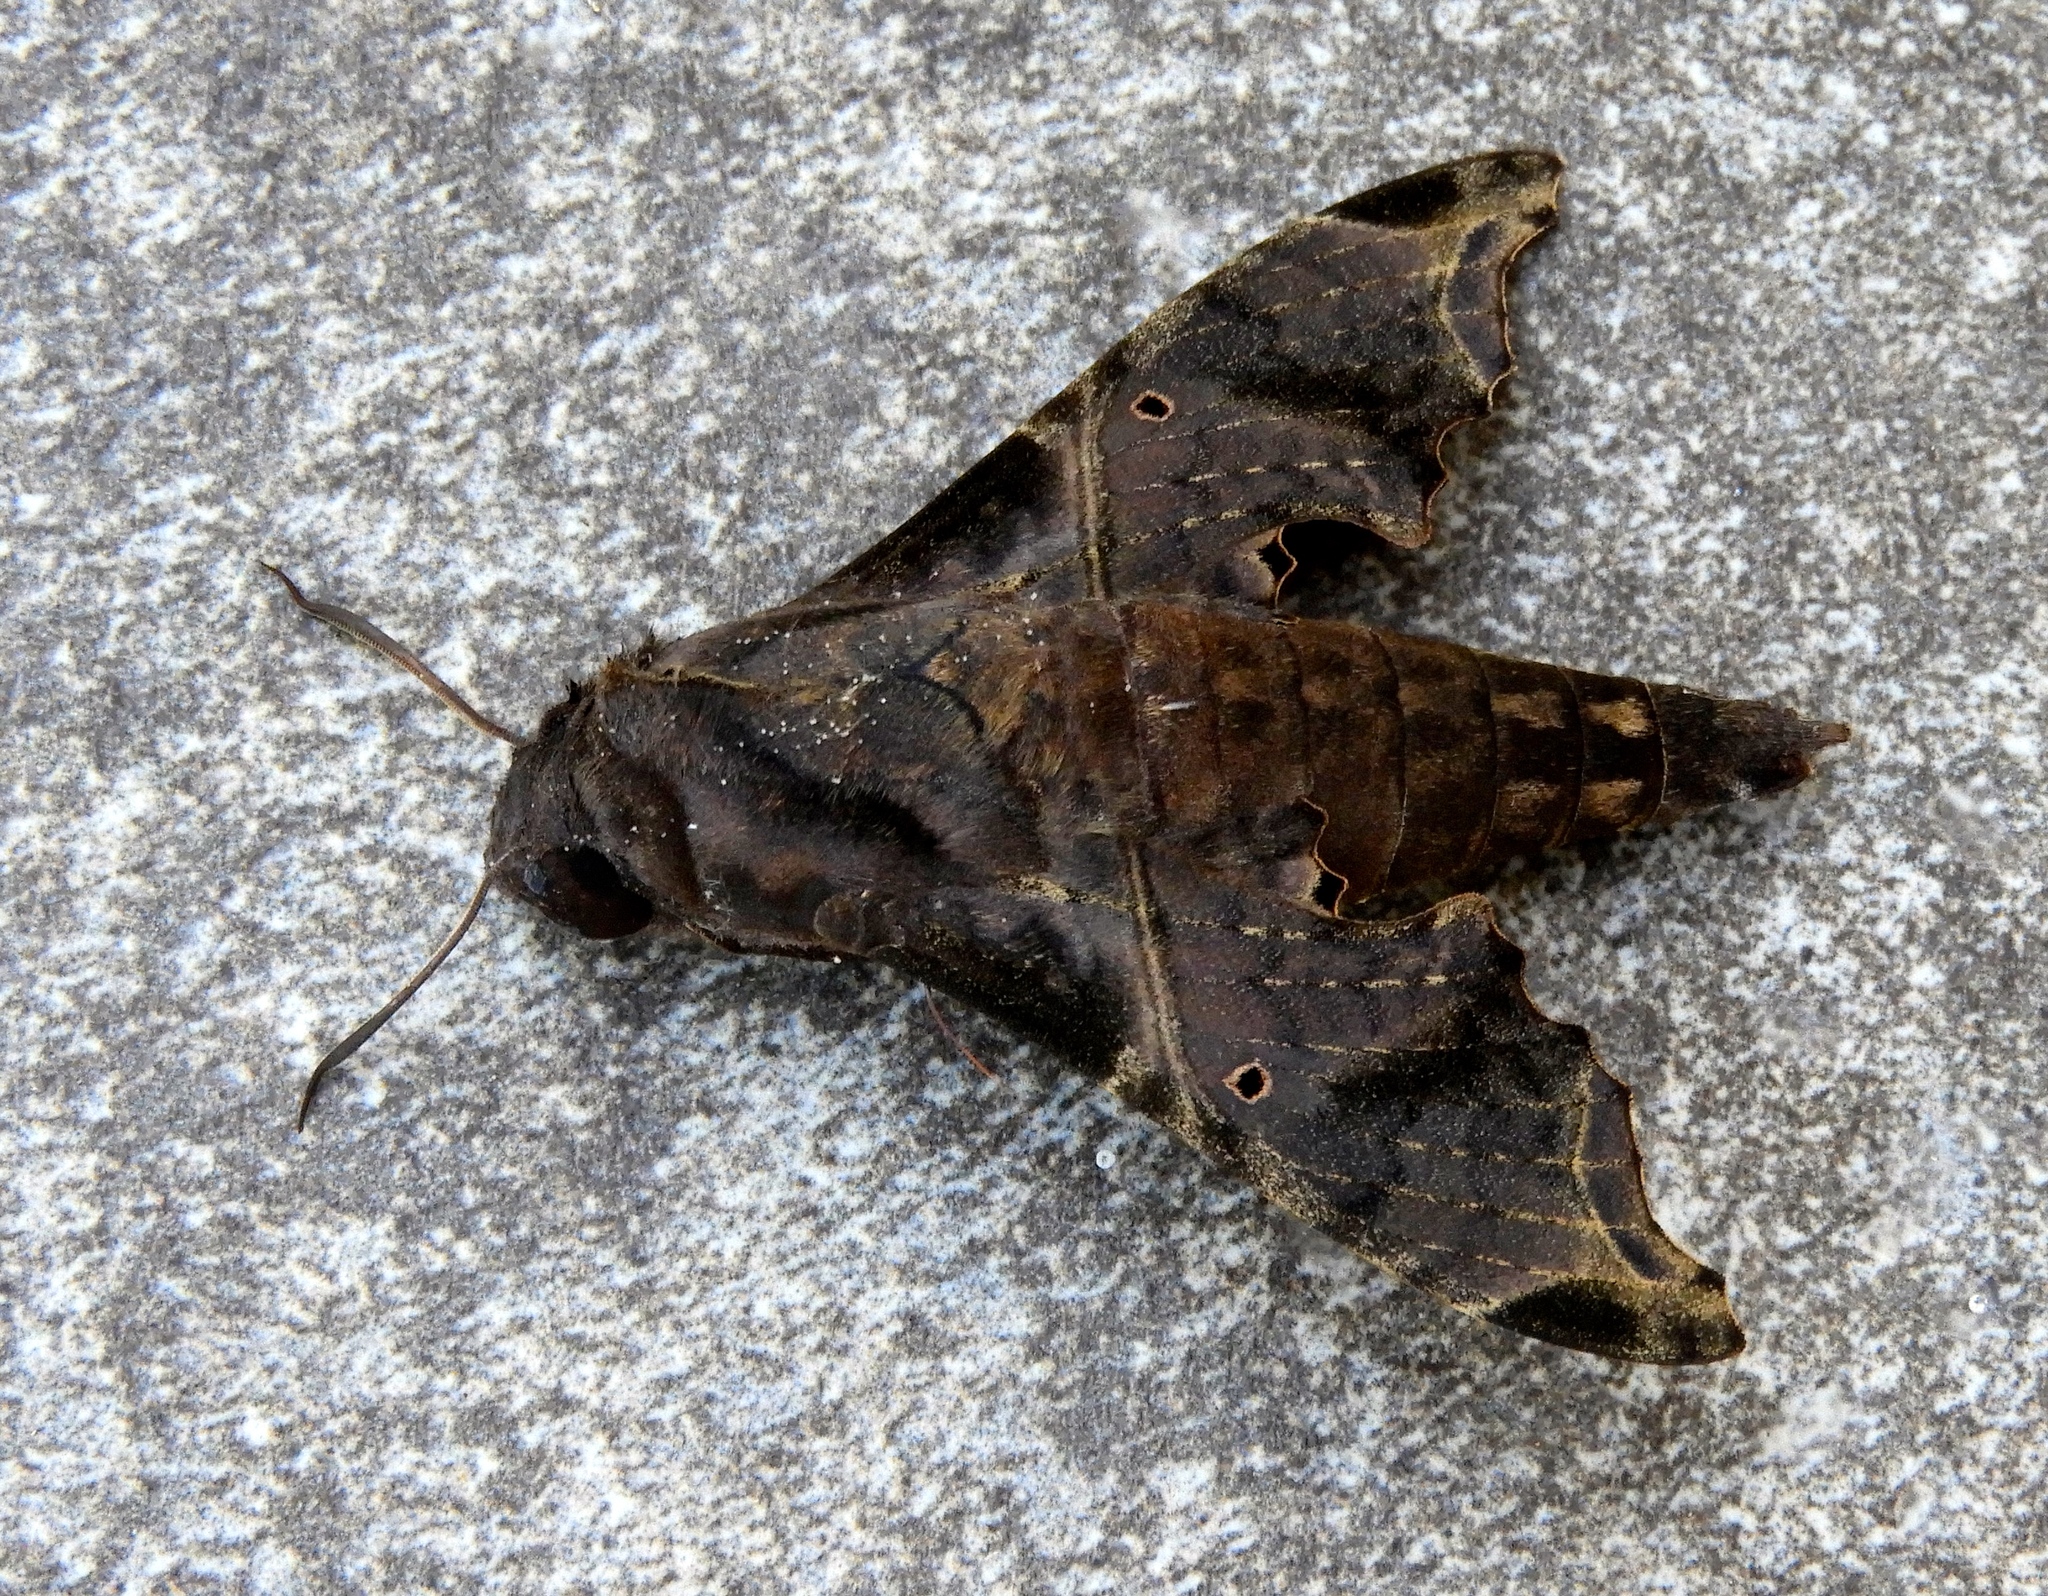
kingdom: Animalia
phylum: Arthropoda
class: Insecta
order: Lepidoptera
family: Sphingidae
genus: Enyo
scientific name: Enyo
